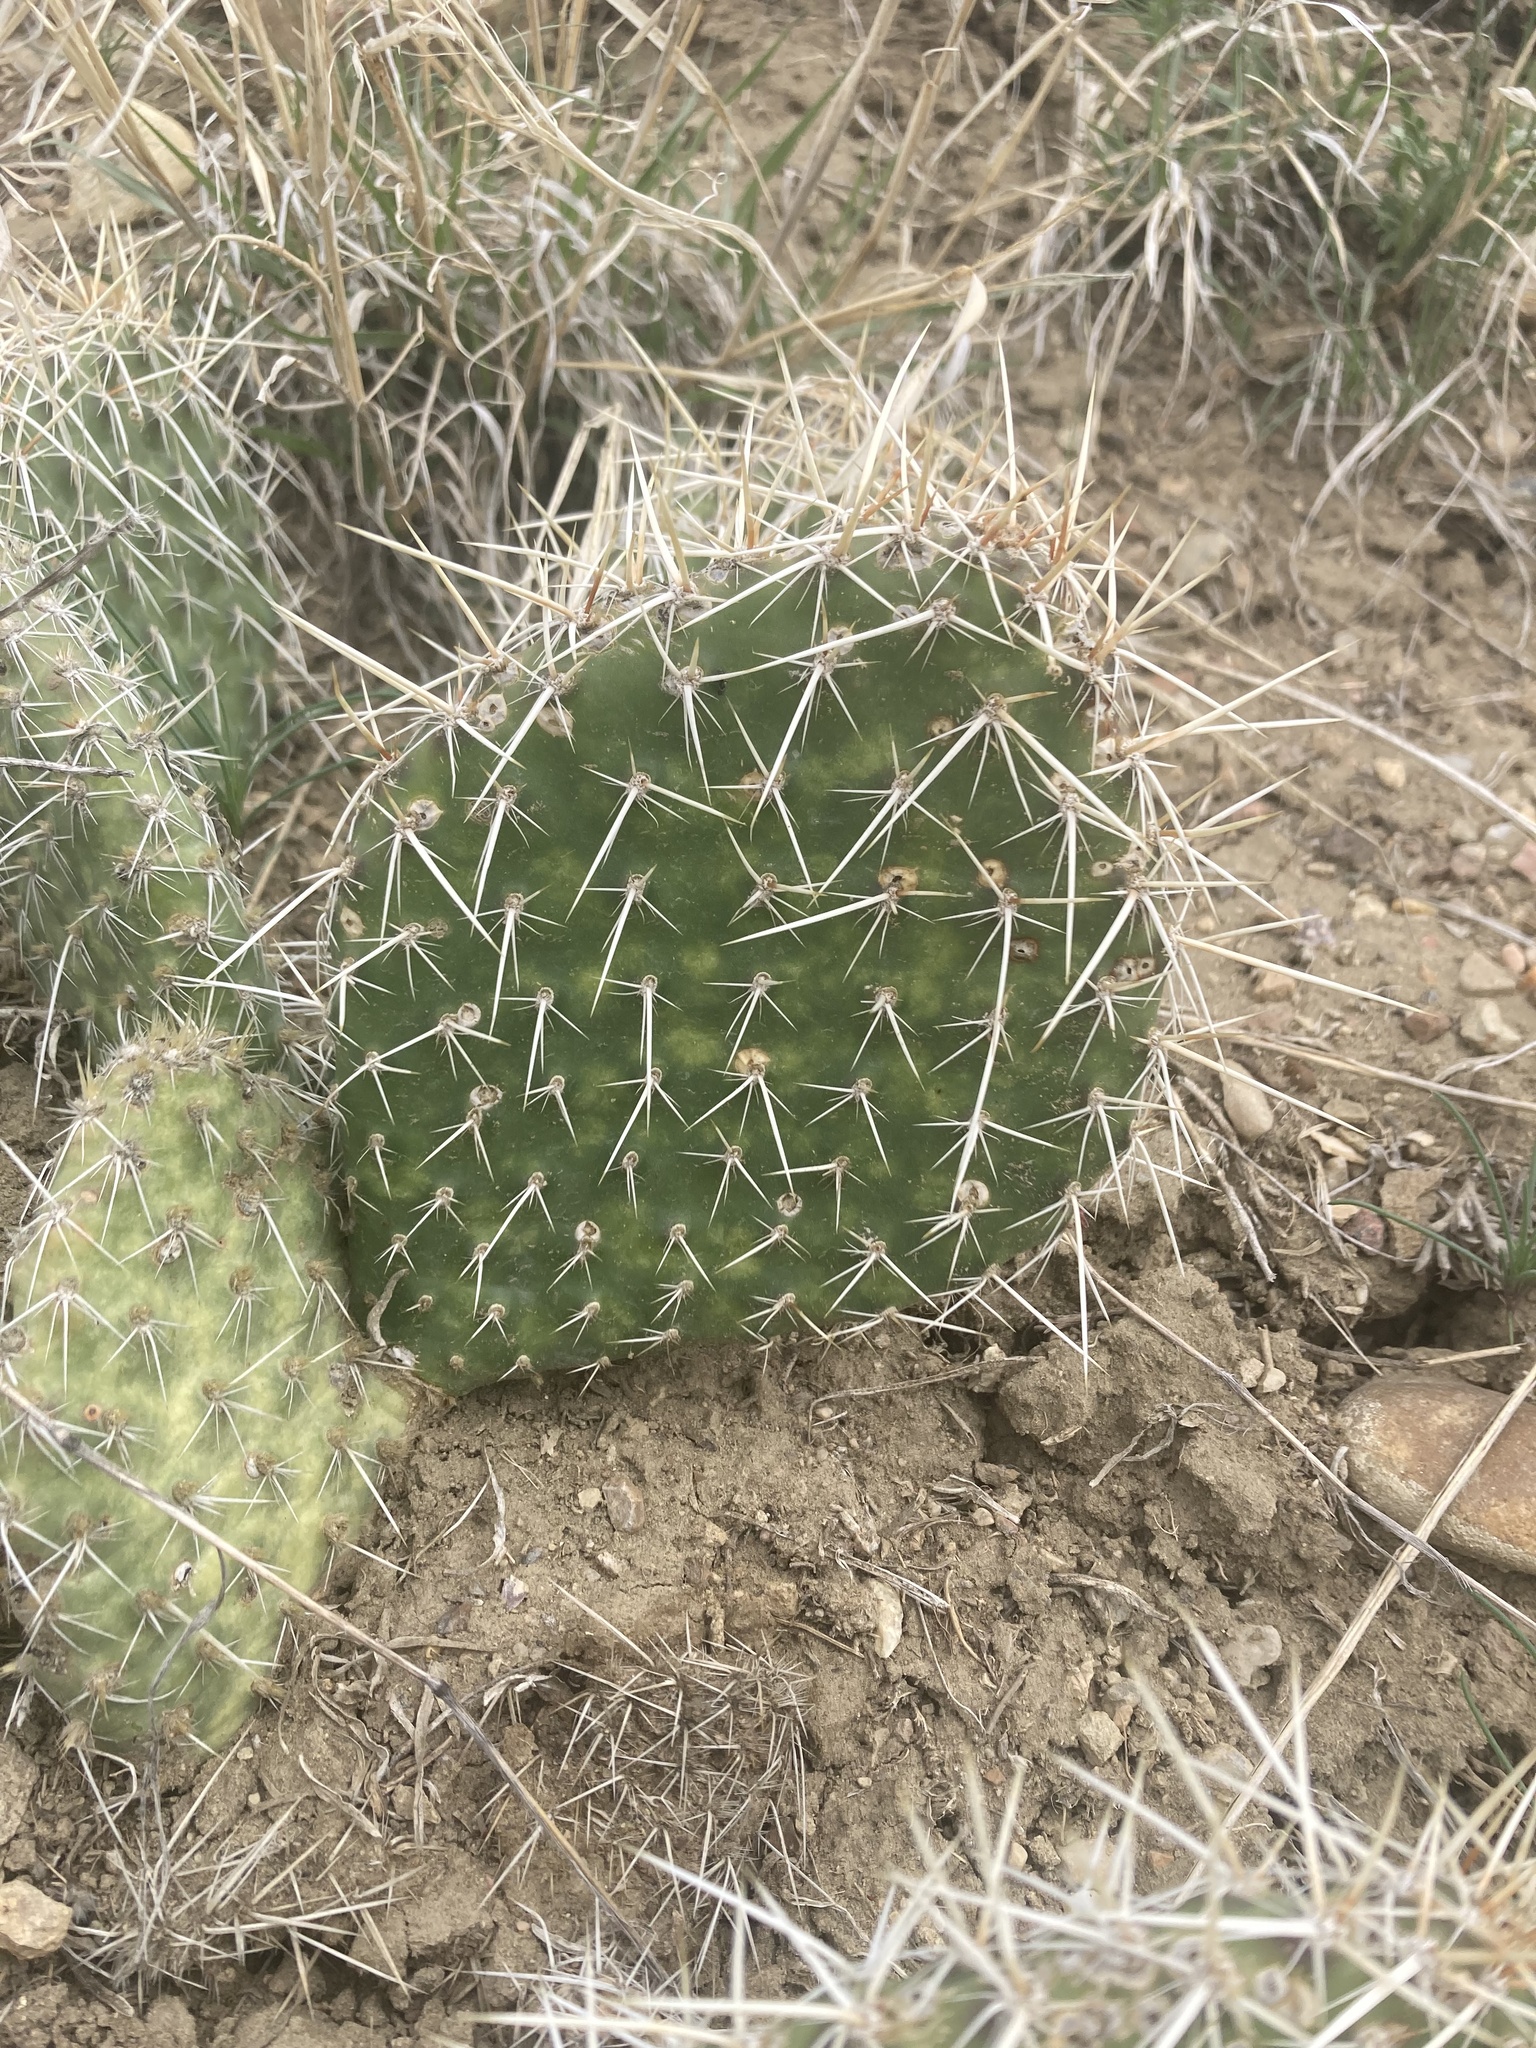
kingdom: Plantae
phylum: Tracheophyta
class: Magnoliopsida
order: Caryophyllales
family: Cactaceae
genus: Opuntia
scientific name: Opuntia polyacantha
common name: Plains prickly-pear
